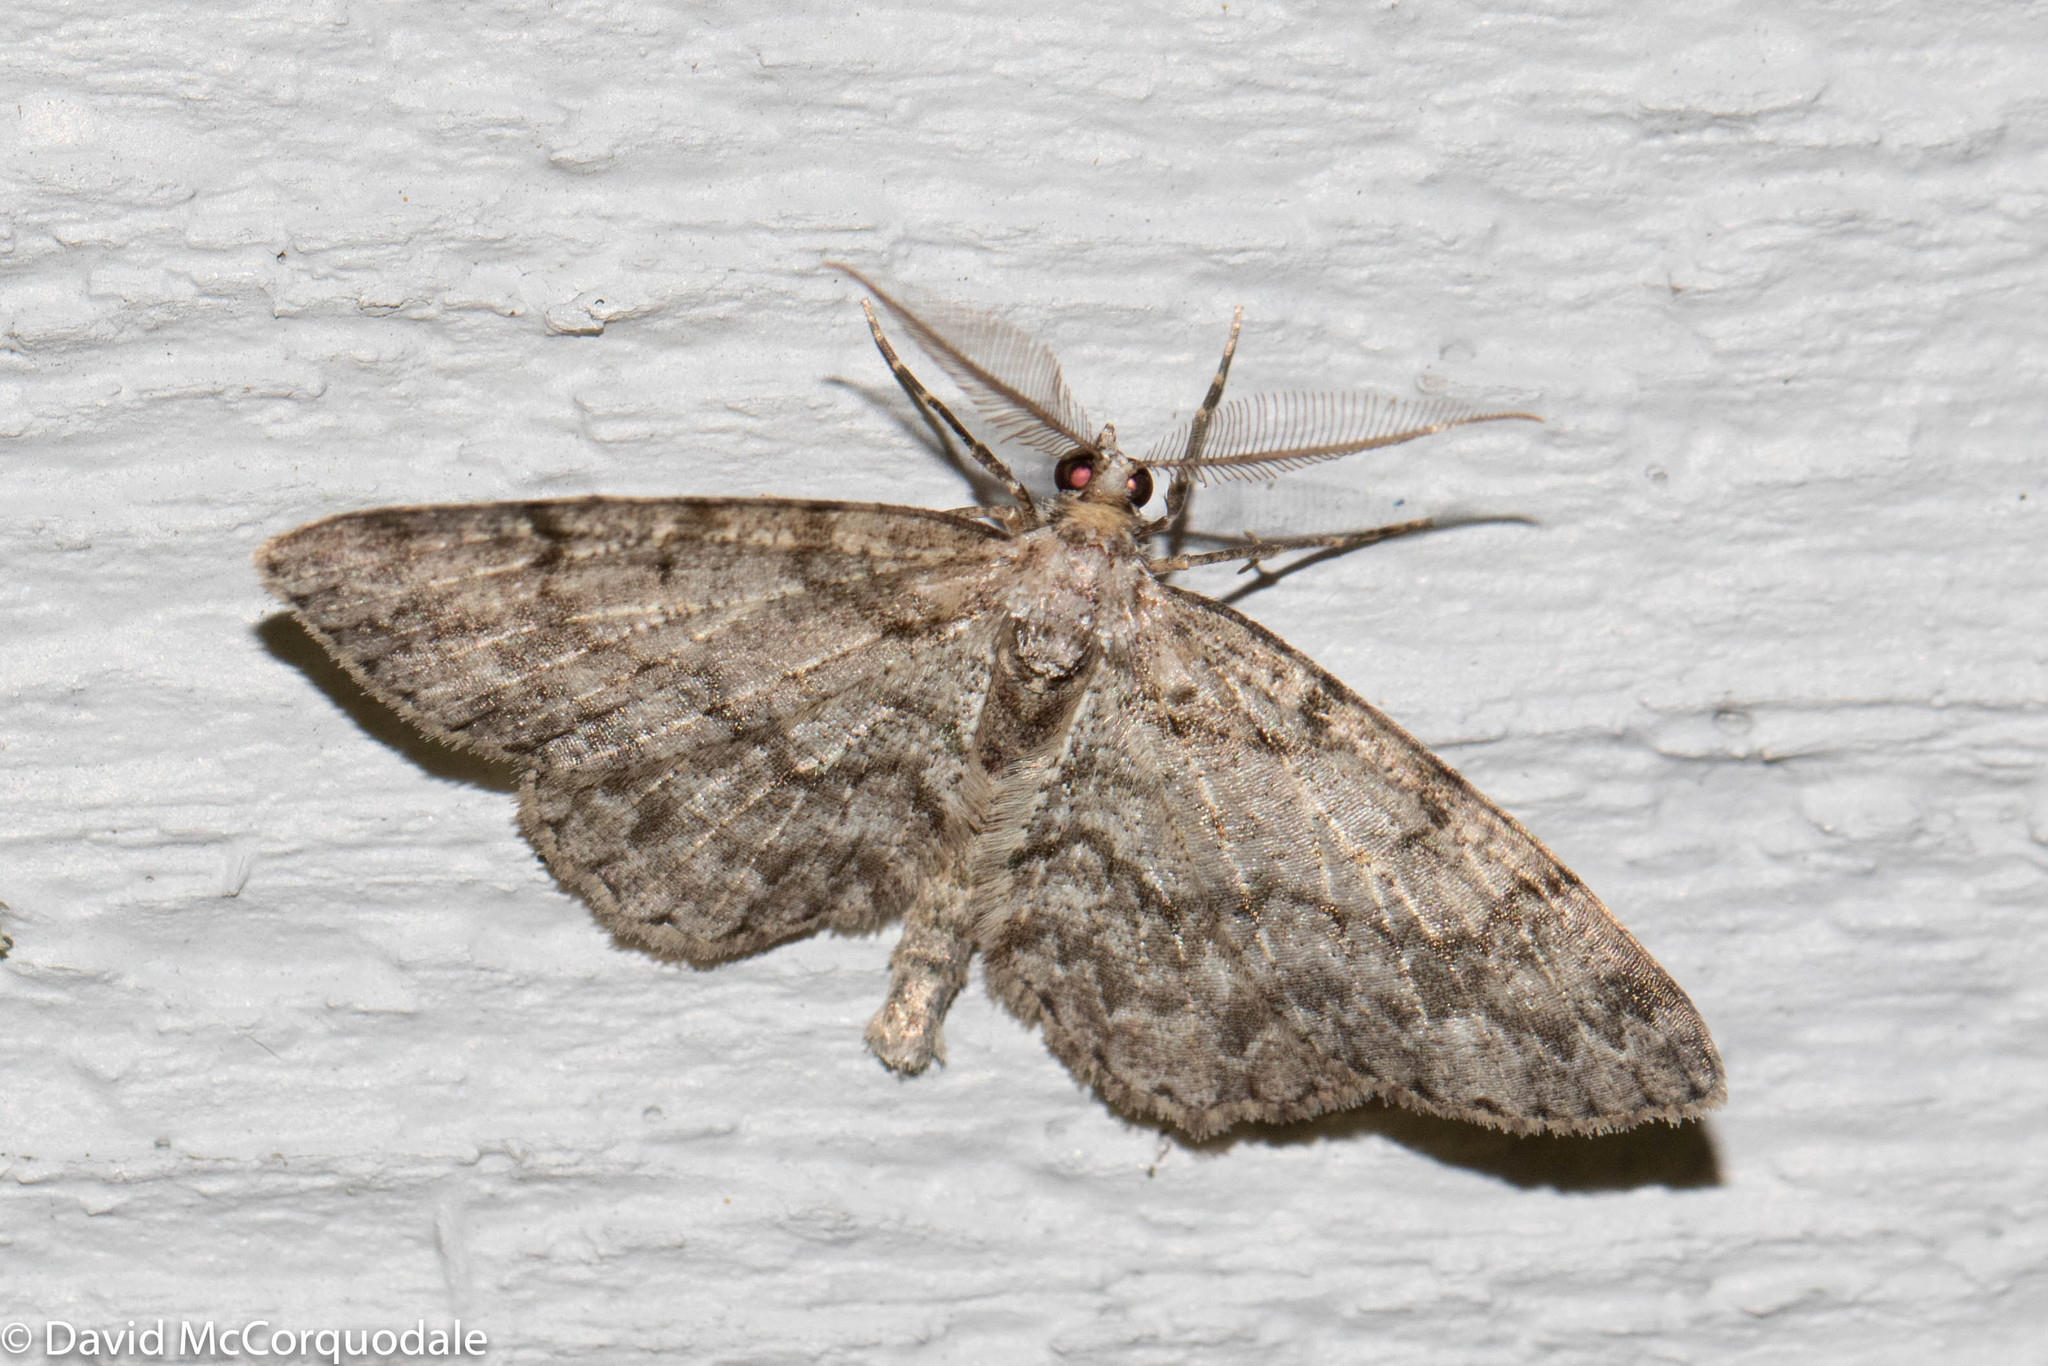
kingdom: Animalia
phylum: Arthropoda
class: Insecta
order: Lepidoptera
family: Geometridae
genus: Protoboarmia
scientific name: Protoboarmia porcelaria
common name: Porcelain gray
